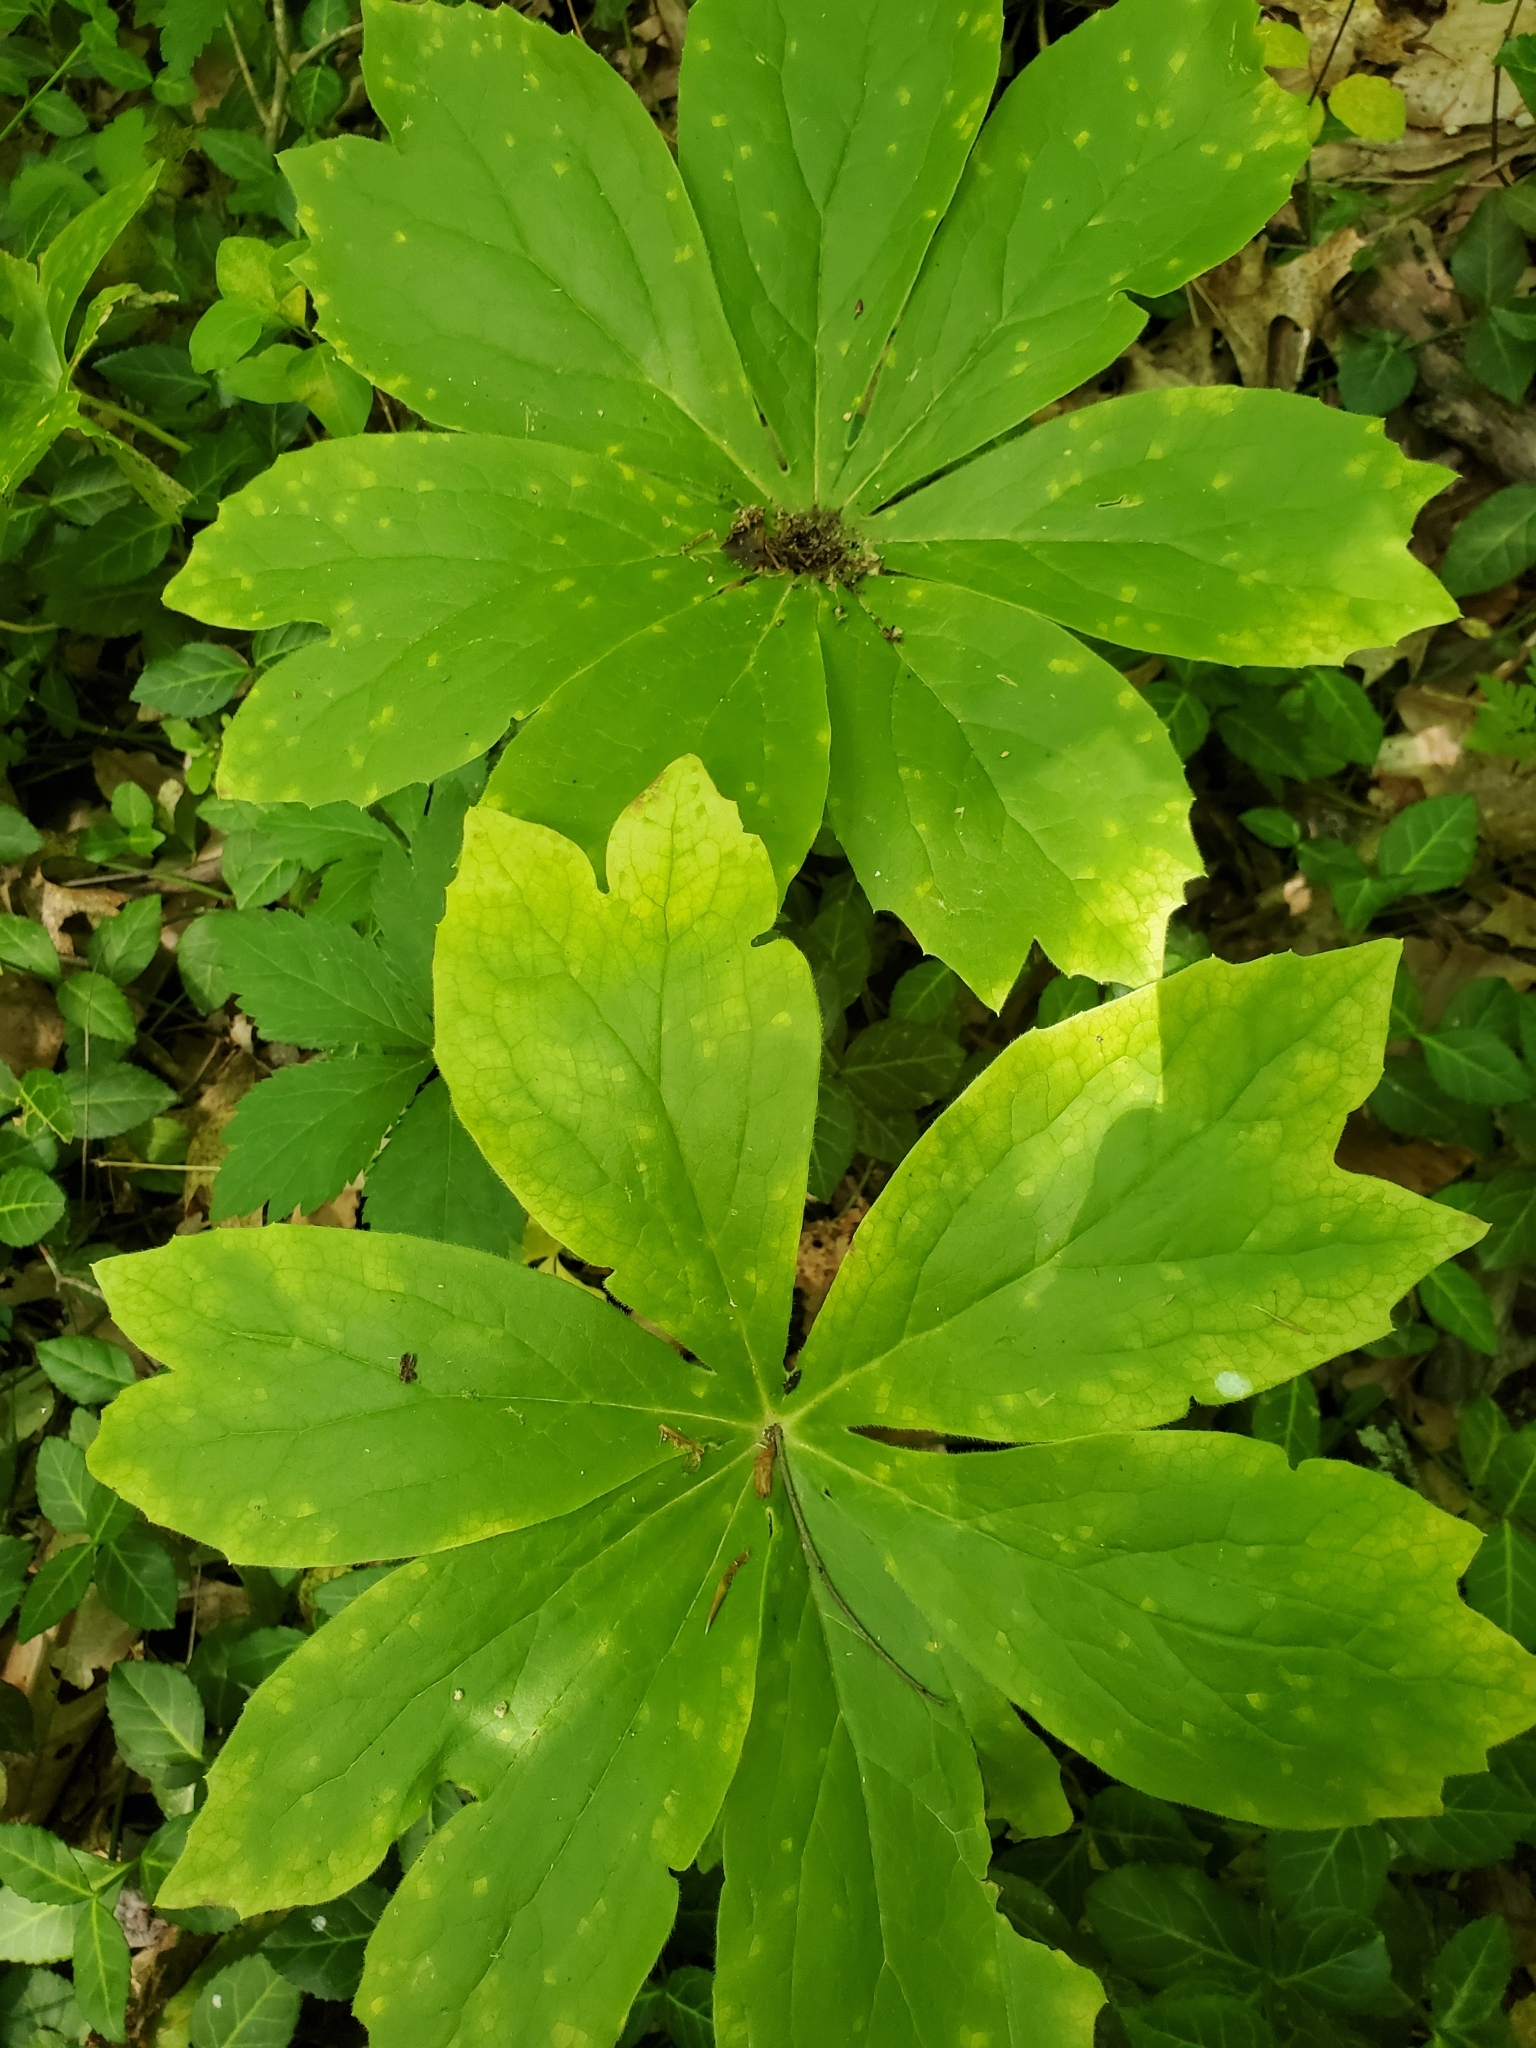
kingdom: Plantae
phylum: Tracheophyta
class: Magnoliopsida
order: Ranunculales
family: Berberidaceae
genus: Podophyllum
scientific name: Podophyllum peltatum
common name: Wild mandrake
